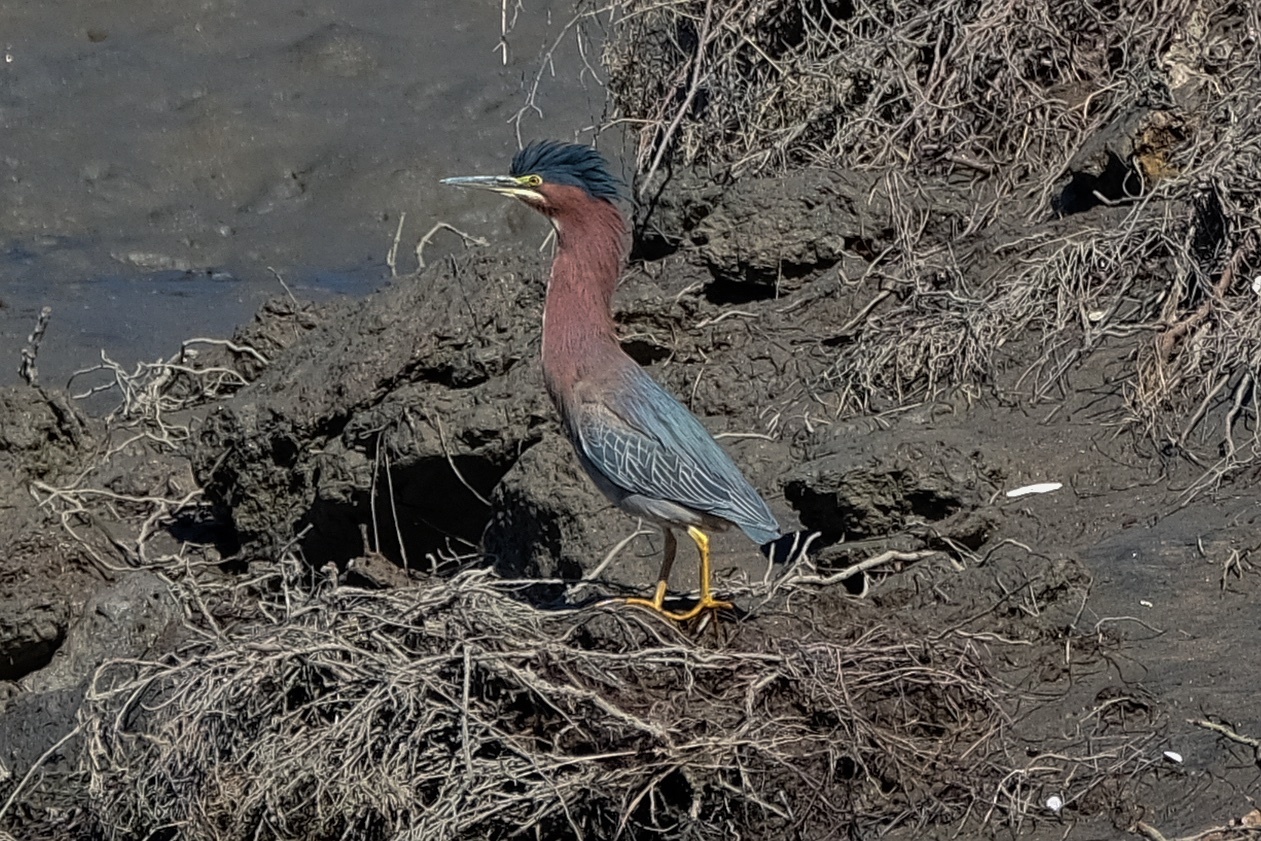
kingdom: Animalia
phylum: Chordata
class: Aves
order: Pelecaniformes
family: Ardeidae
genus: Butorides
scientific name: Butorides virescens
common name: Green heron
